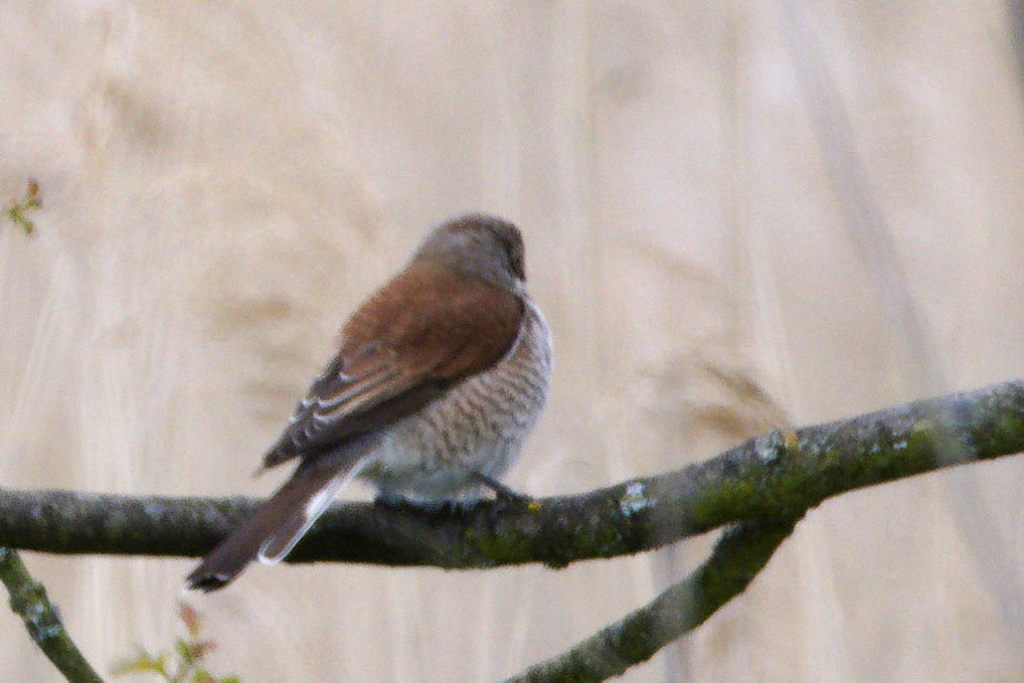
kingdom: Animalia
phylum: Chordata
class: Aves
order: Passeriformes
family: Laniidae
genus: Lanius
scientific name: Lanius collurio
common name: Red-backed shrike
